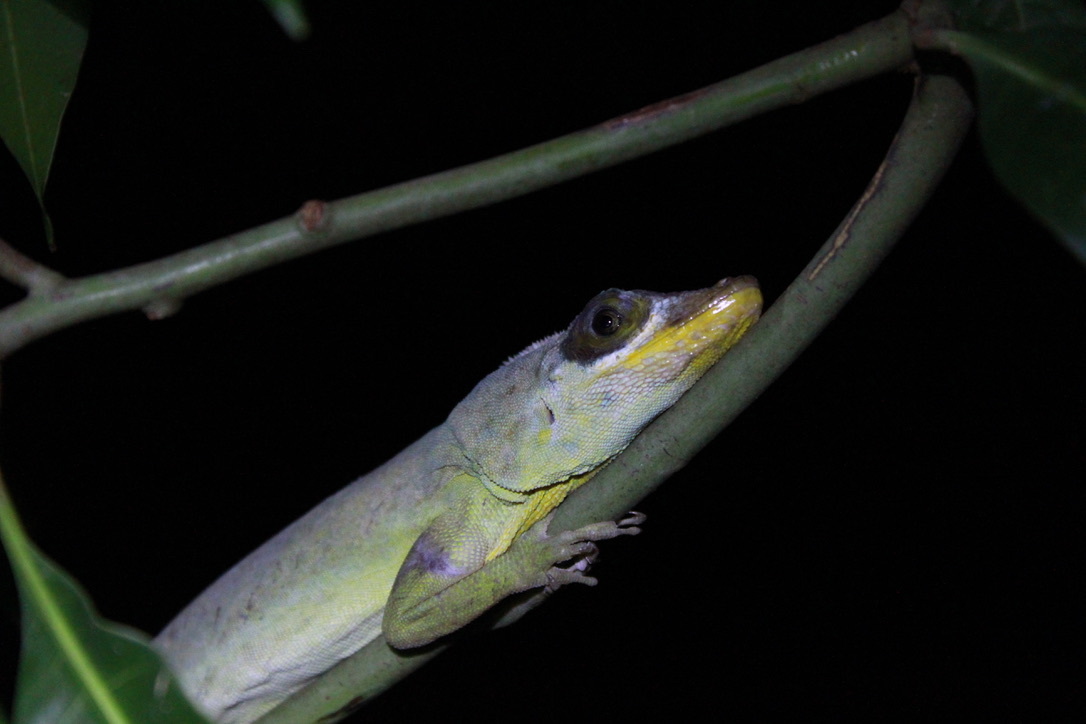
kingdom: Animalia
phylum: Chordata
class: Squamata
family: Dactyloidae
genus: Anolis
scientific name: Anolis richardii
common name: Grenada tree anole
